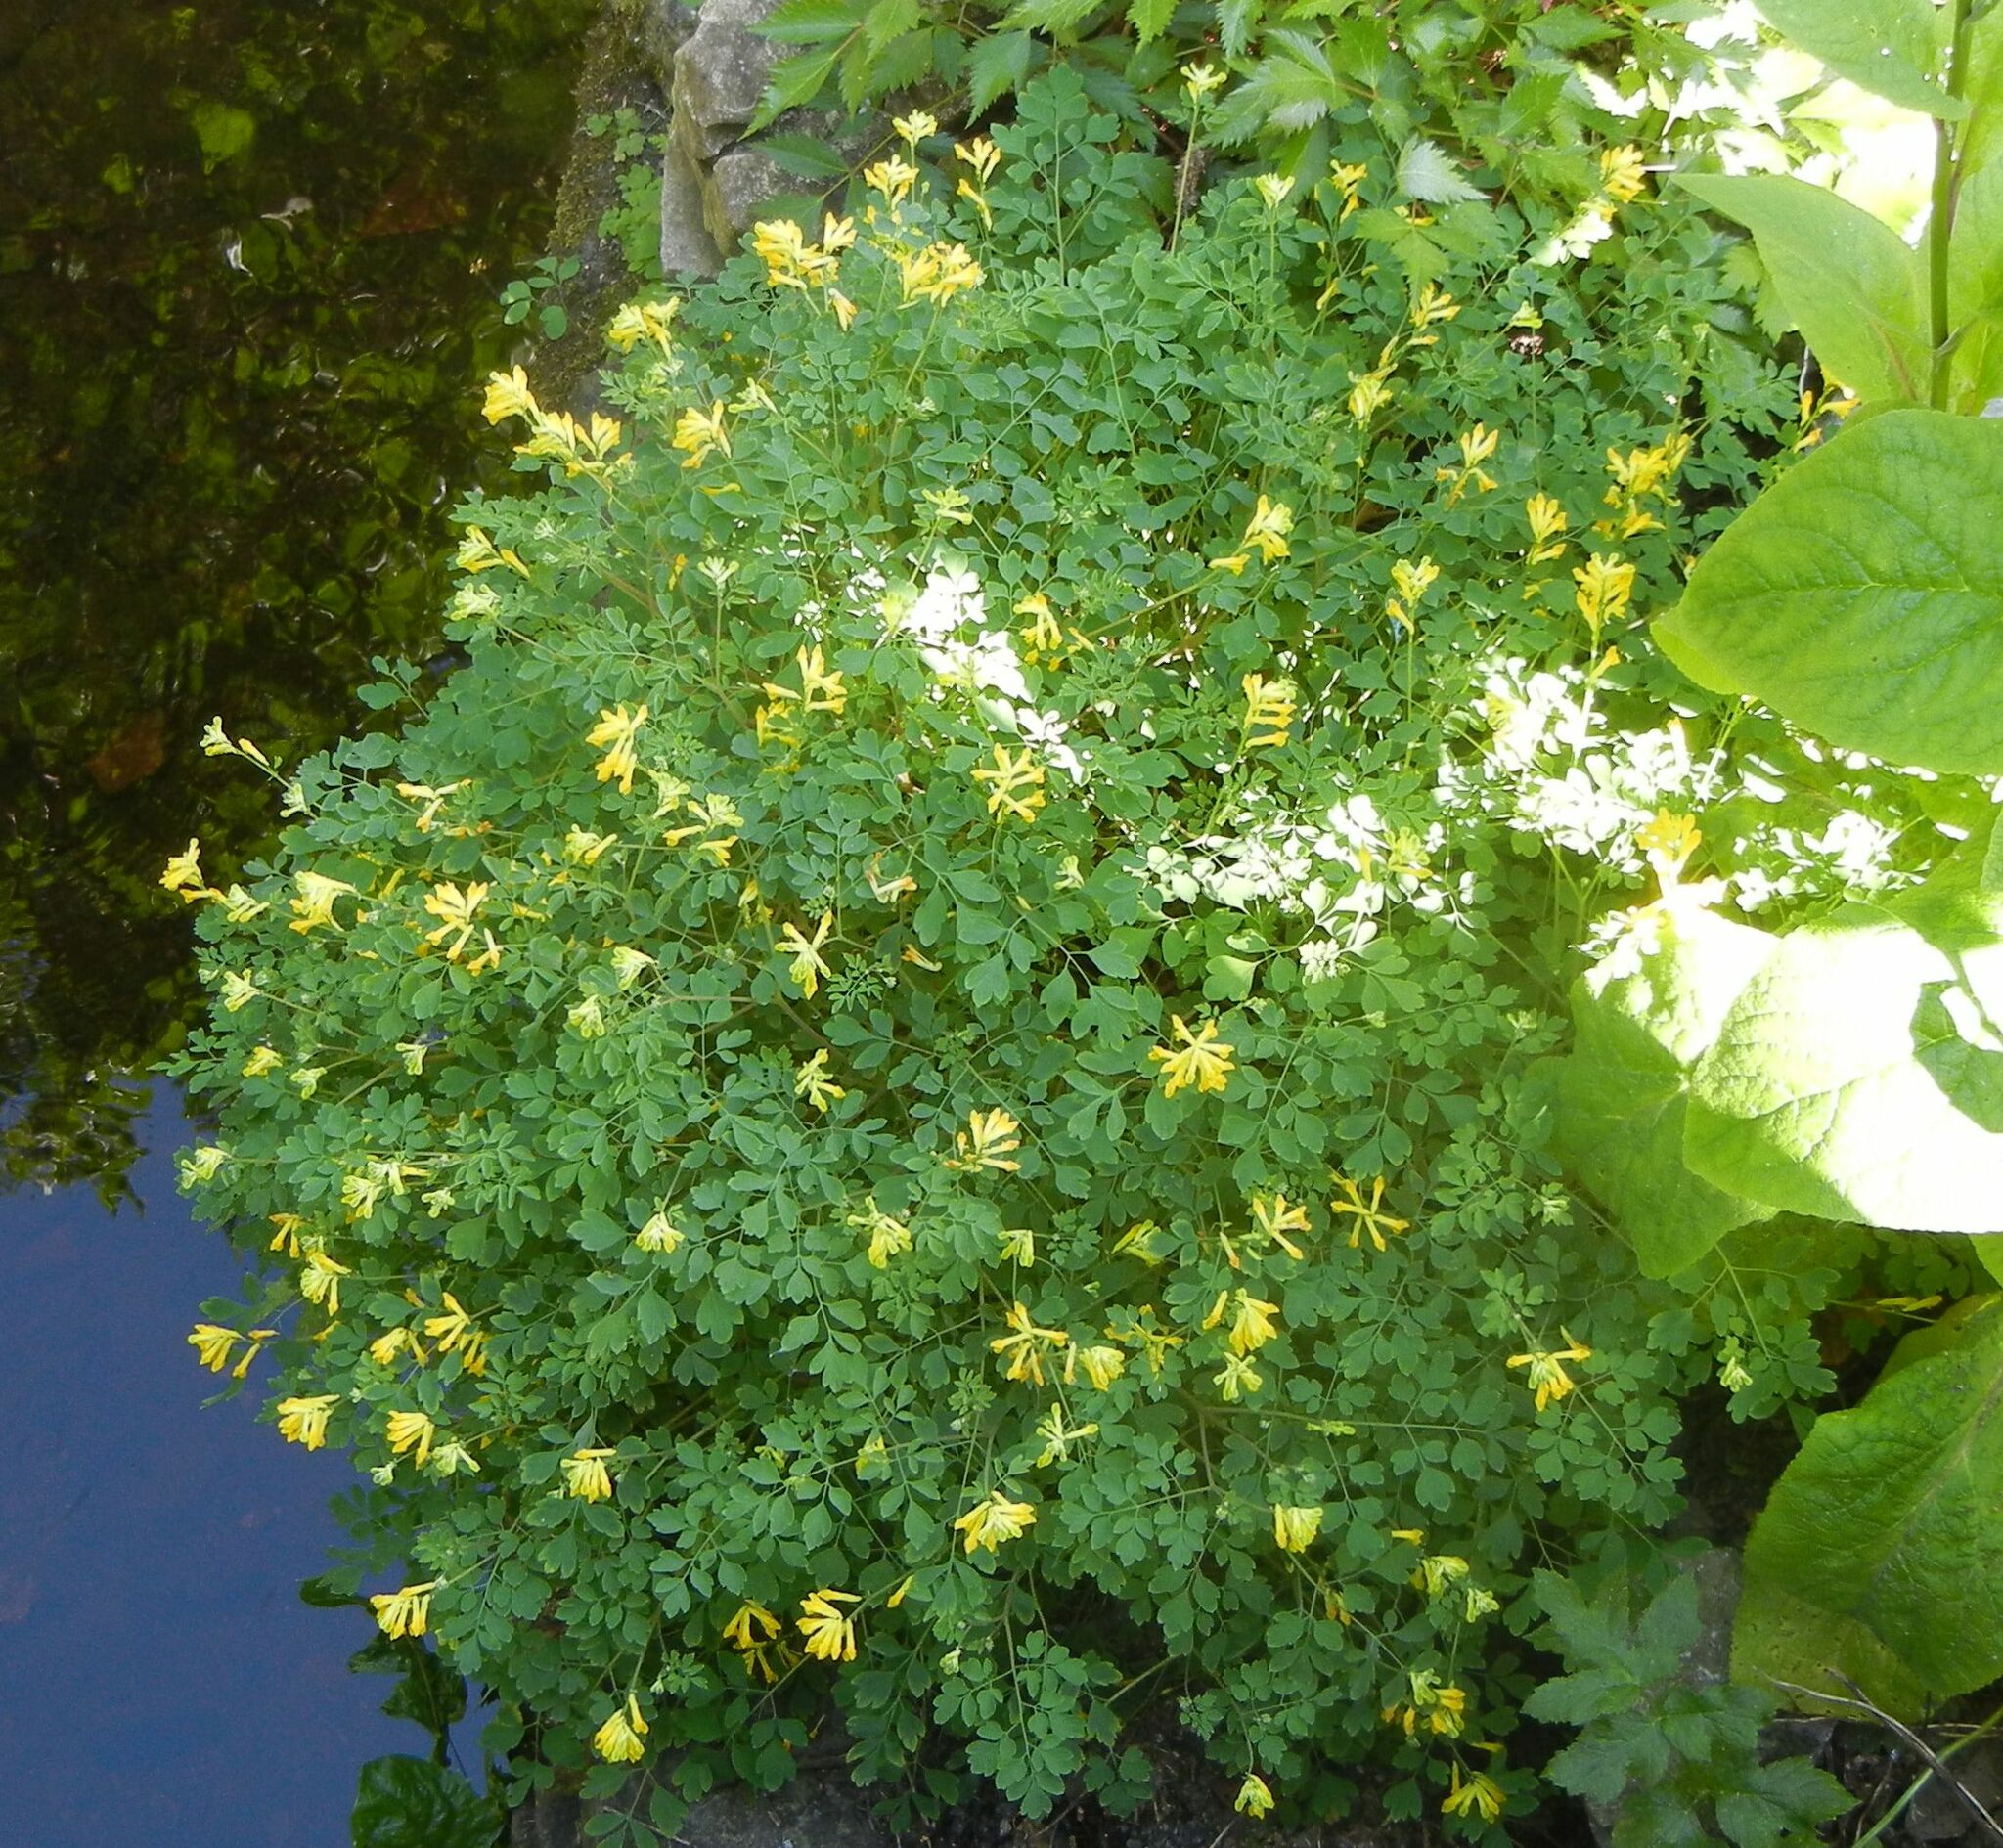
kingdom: Plantae
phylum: Tracheophyta
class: Magnoliopsida
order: Ranunculales
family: Papaveraceae
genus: Pseudofumaria
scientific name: Pseudofumaria lutea
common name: Yellow corydalis
